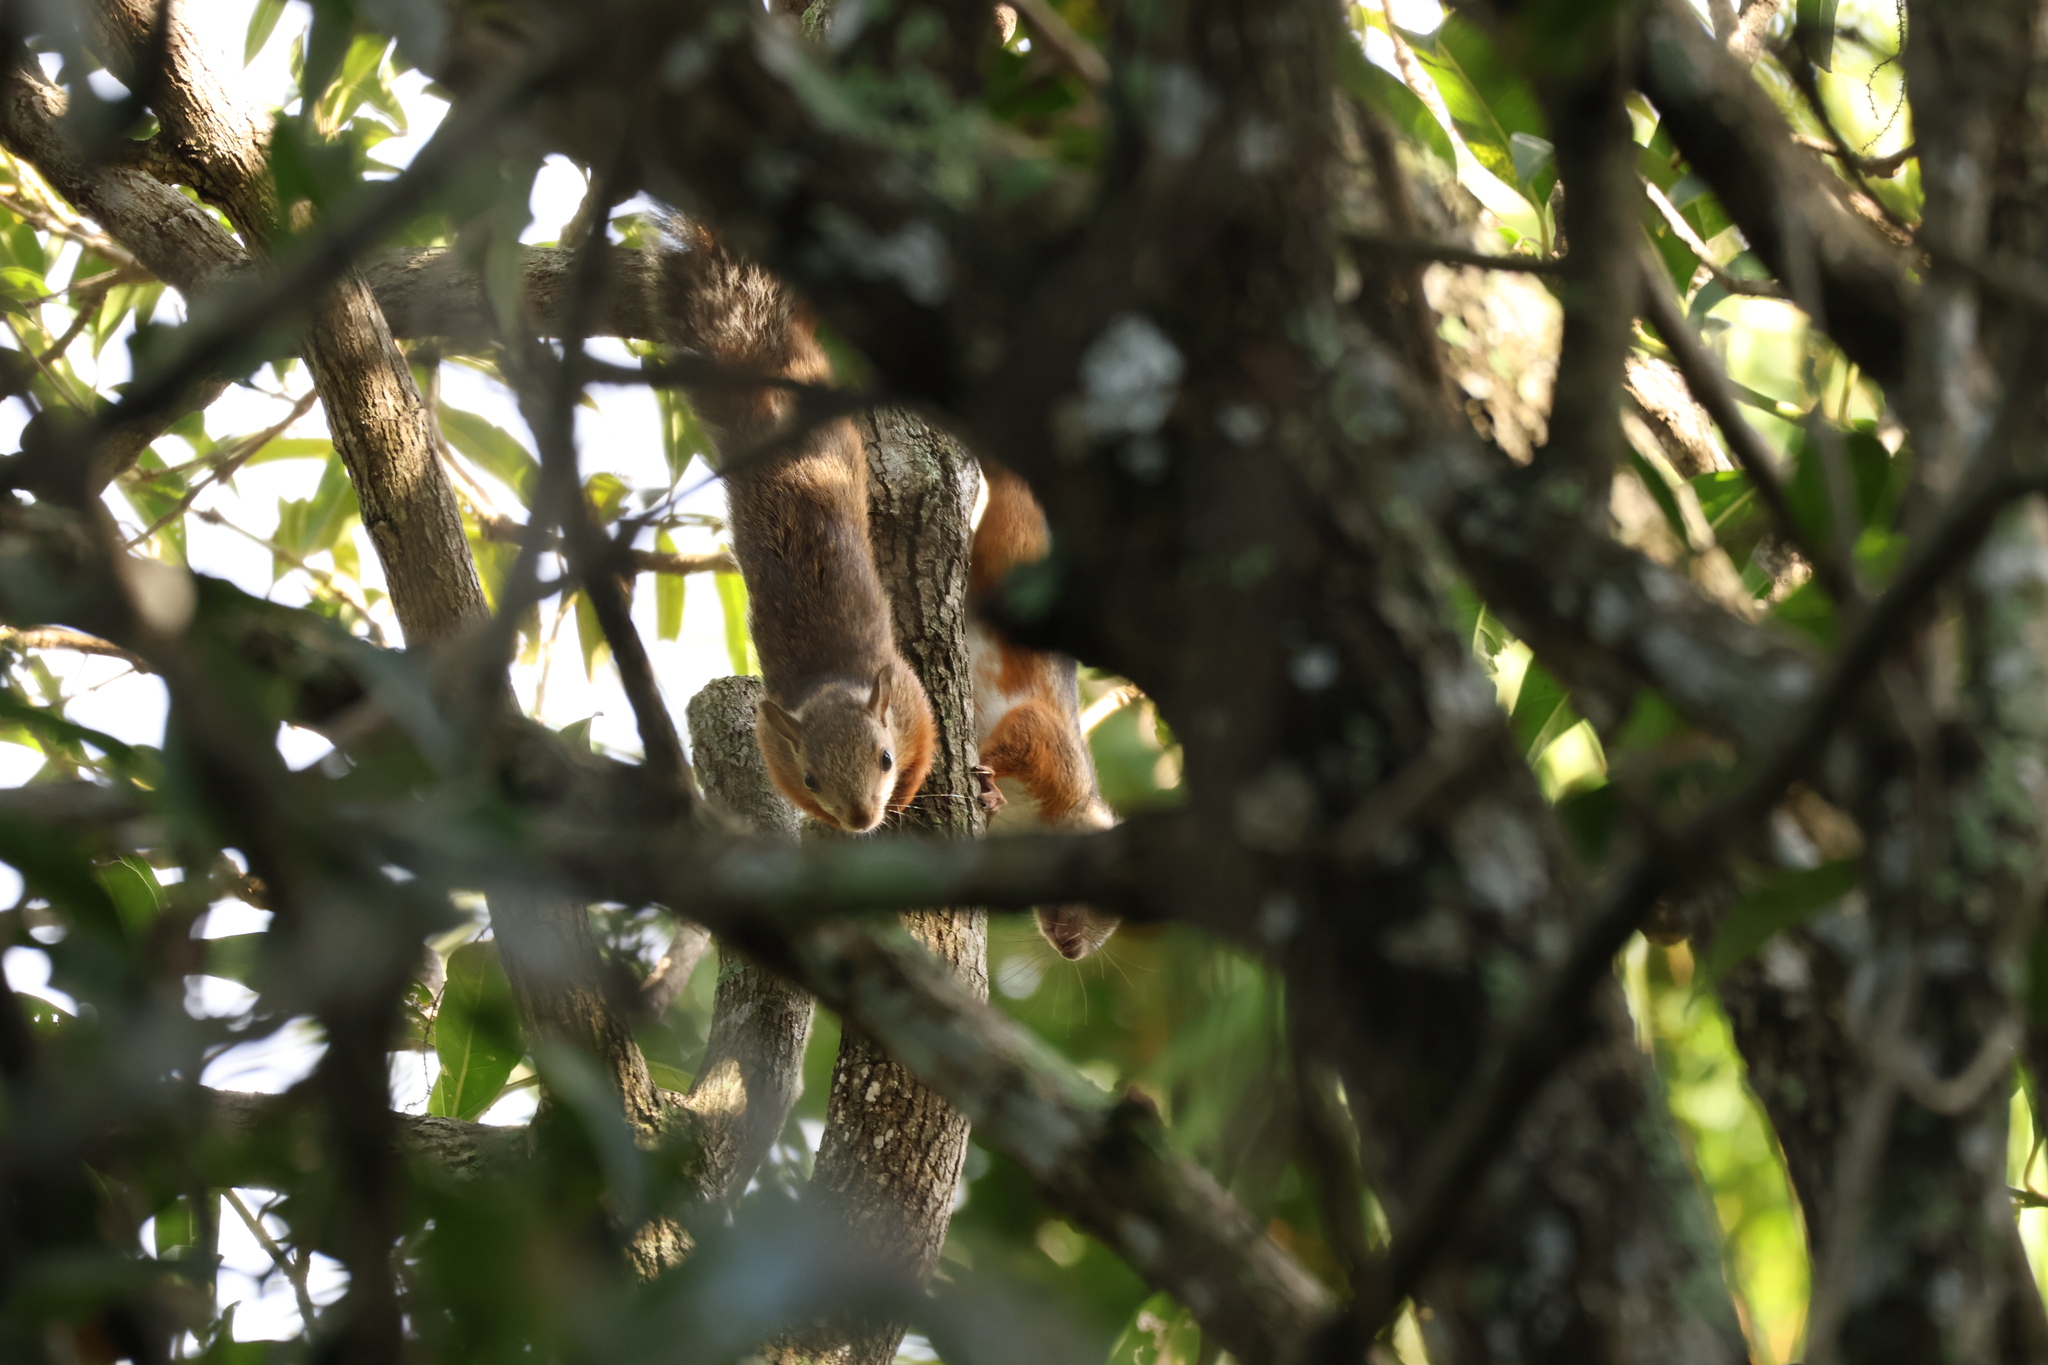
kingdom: Animalia
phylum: Chordata
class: Mammalia
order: Rodentia
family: Sciuridae
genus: Sciurus
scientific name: Sciurus variegatoides
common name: Variegated squirrel
